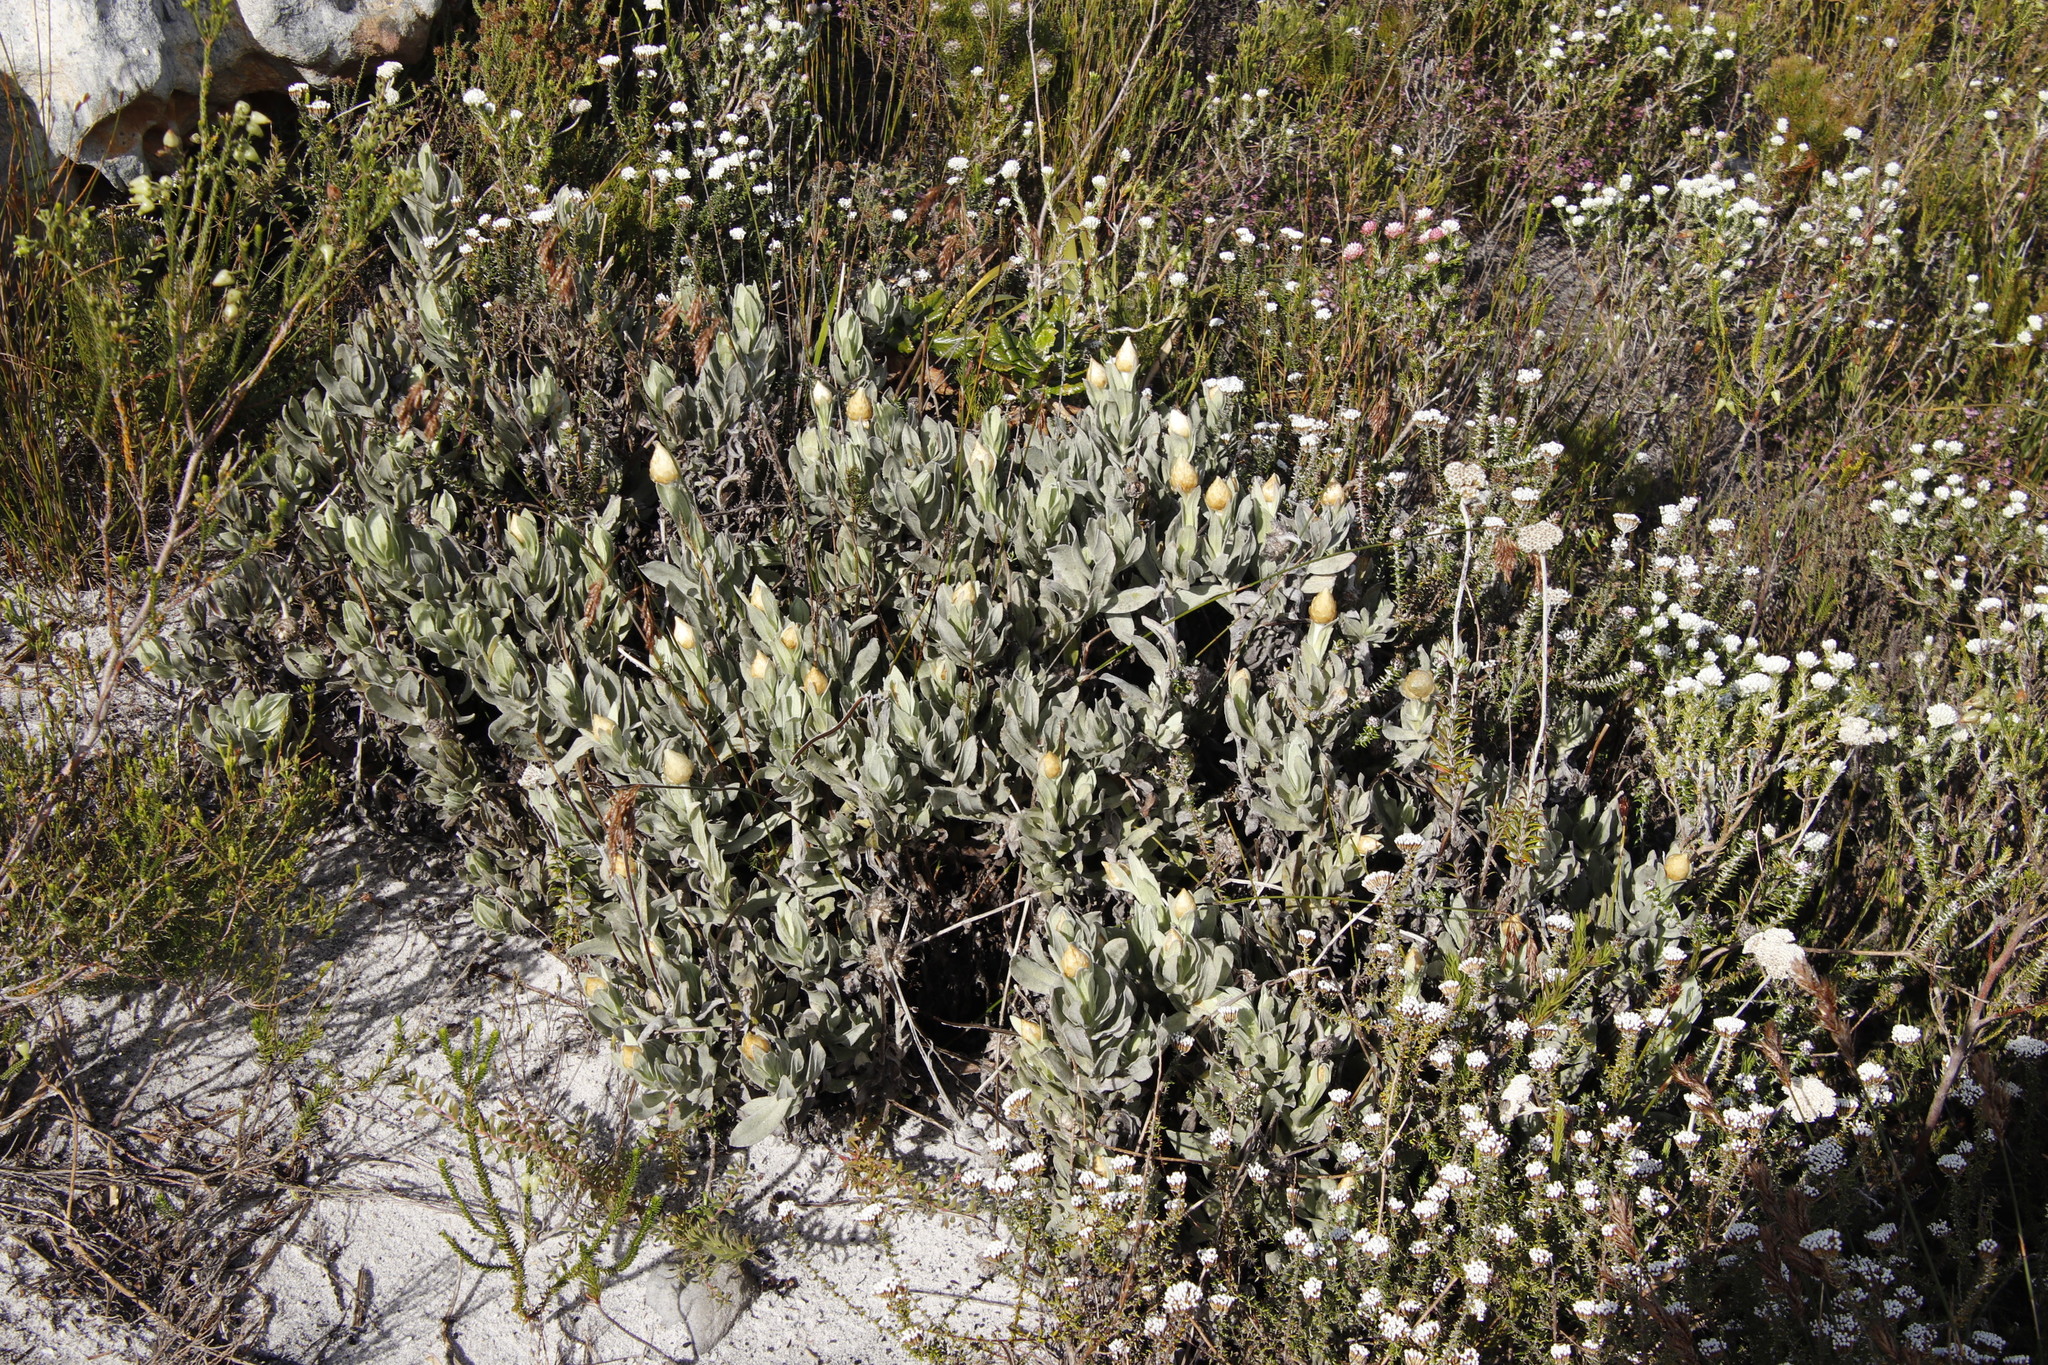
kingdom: Plantae
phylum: Tracheophyta
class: Magnoliopsida
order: Asterales
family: Asteraceae
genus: Syncarpha
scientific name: Syncarpha speciosissima
